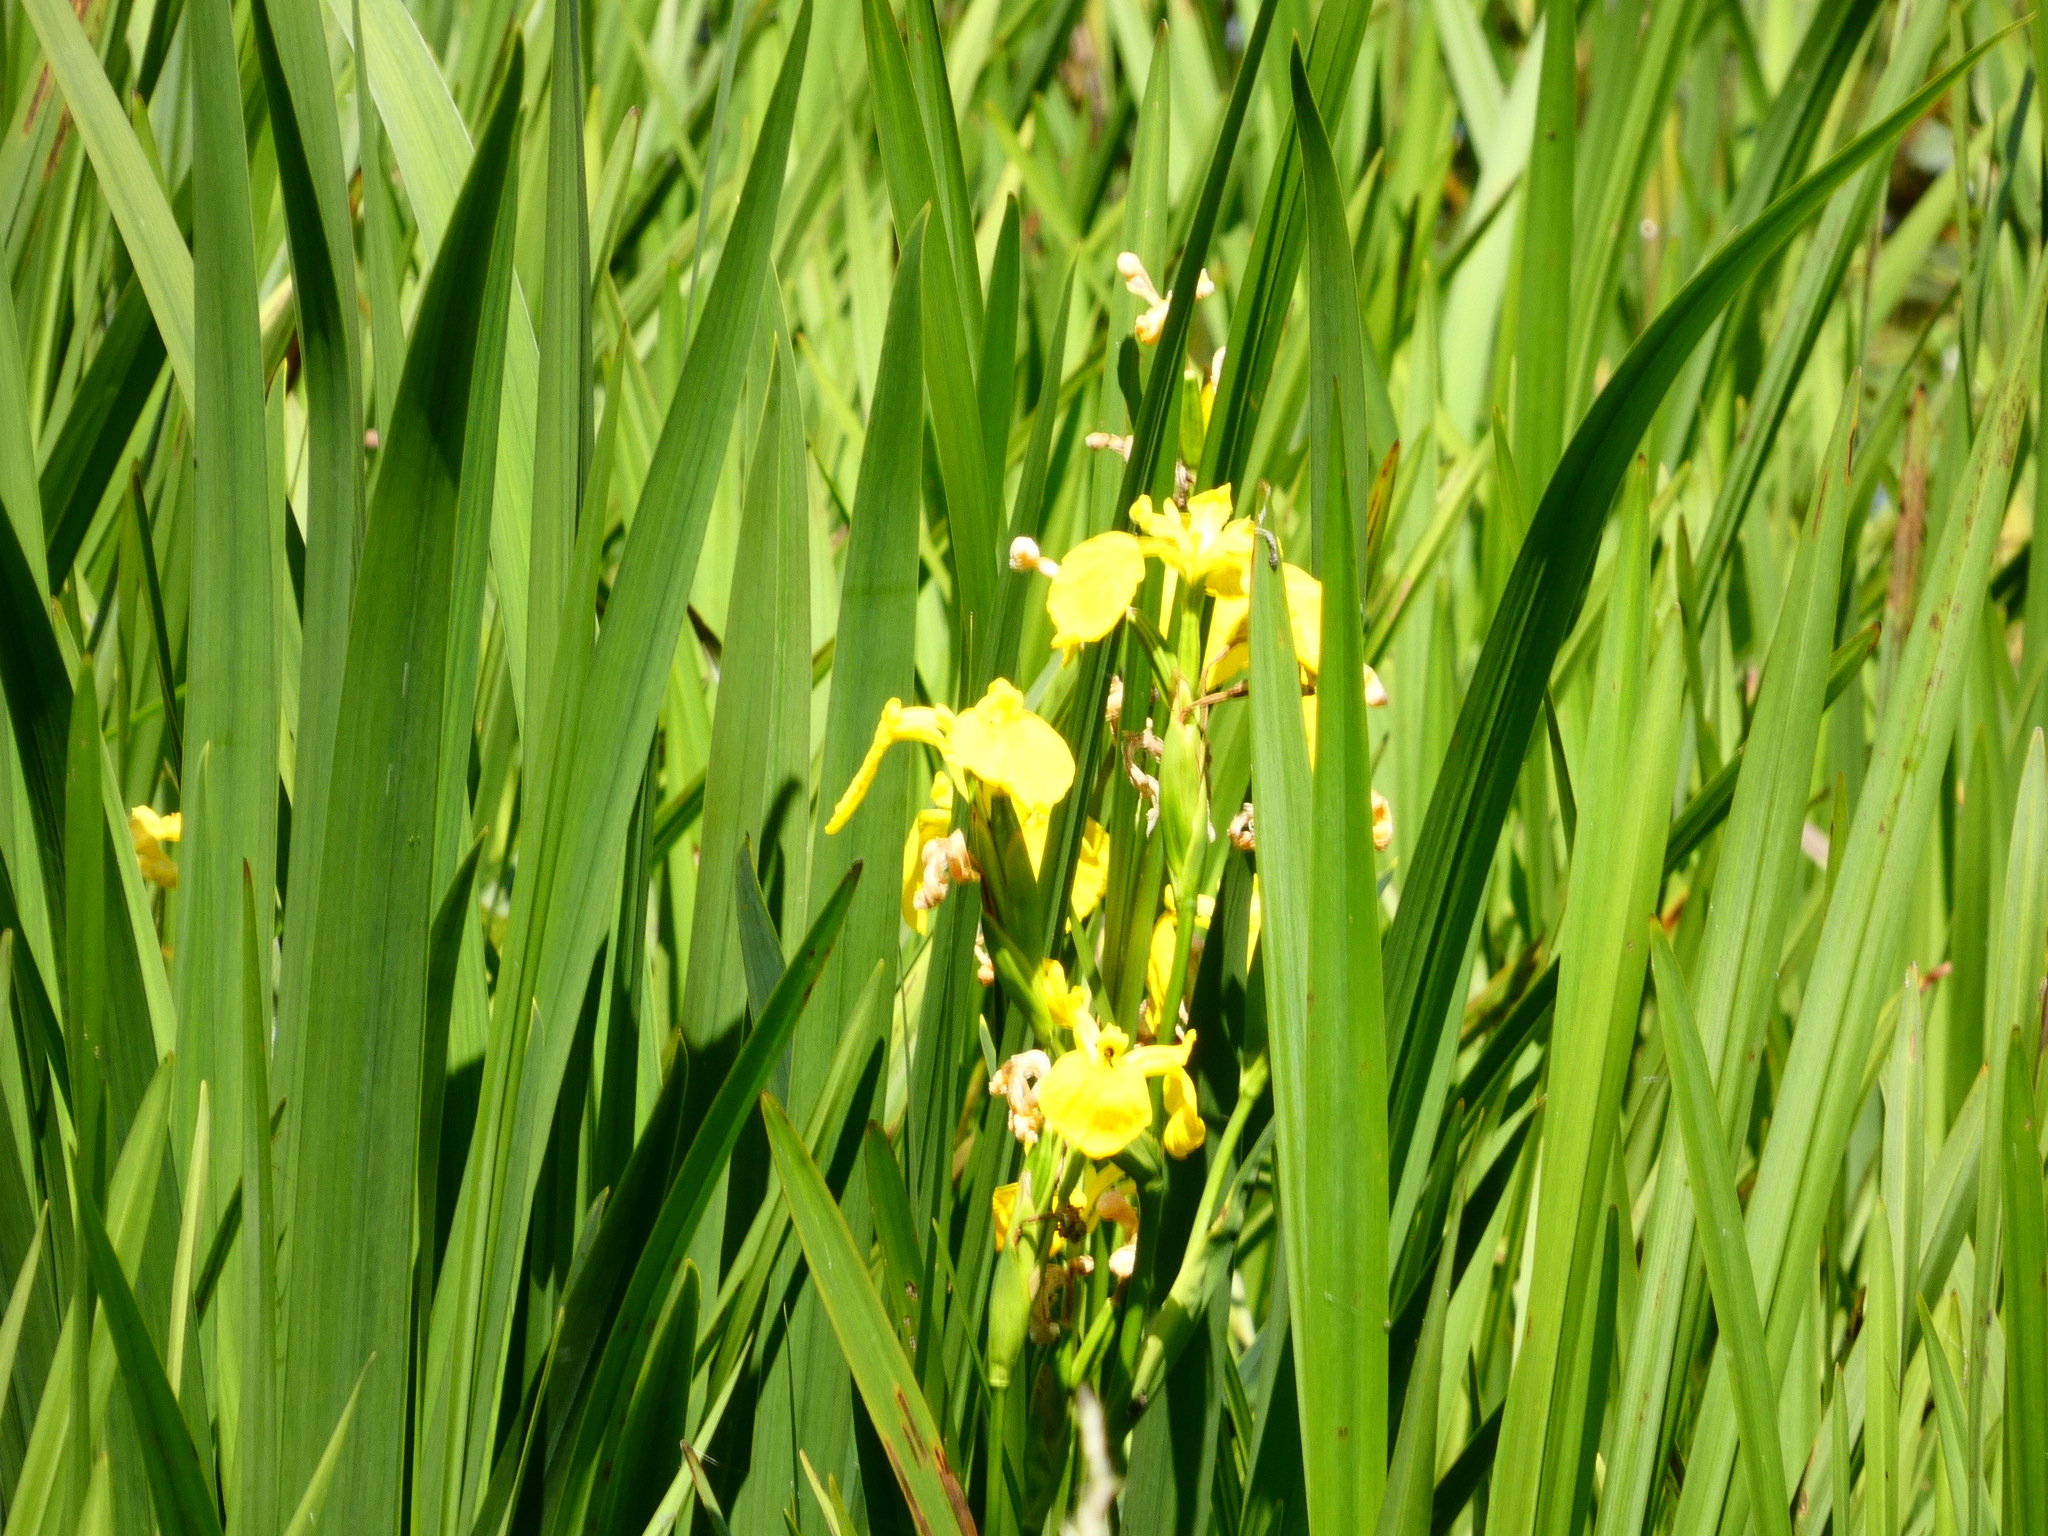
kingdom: Plantae
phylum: Tracheophyta
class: Liliopsida
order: Asparagales
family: Iridaceae
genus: Iris
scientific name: Iris pseudacorus
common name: Yellow flag
